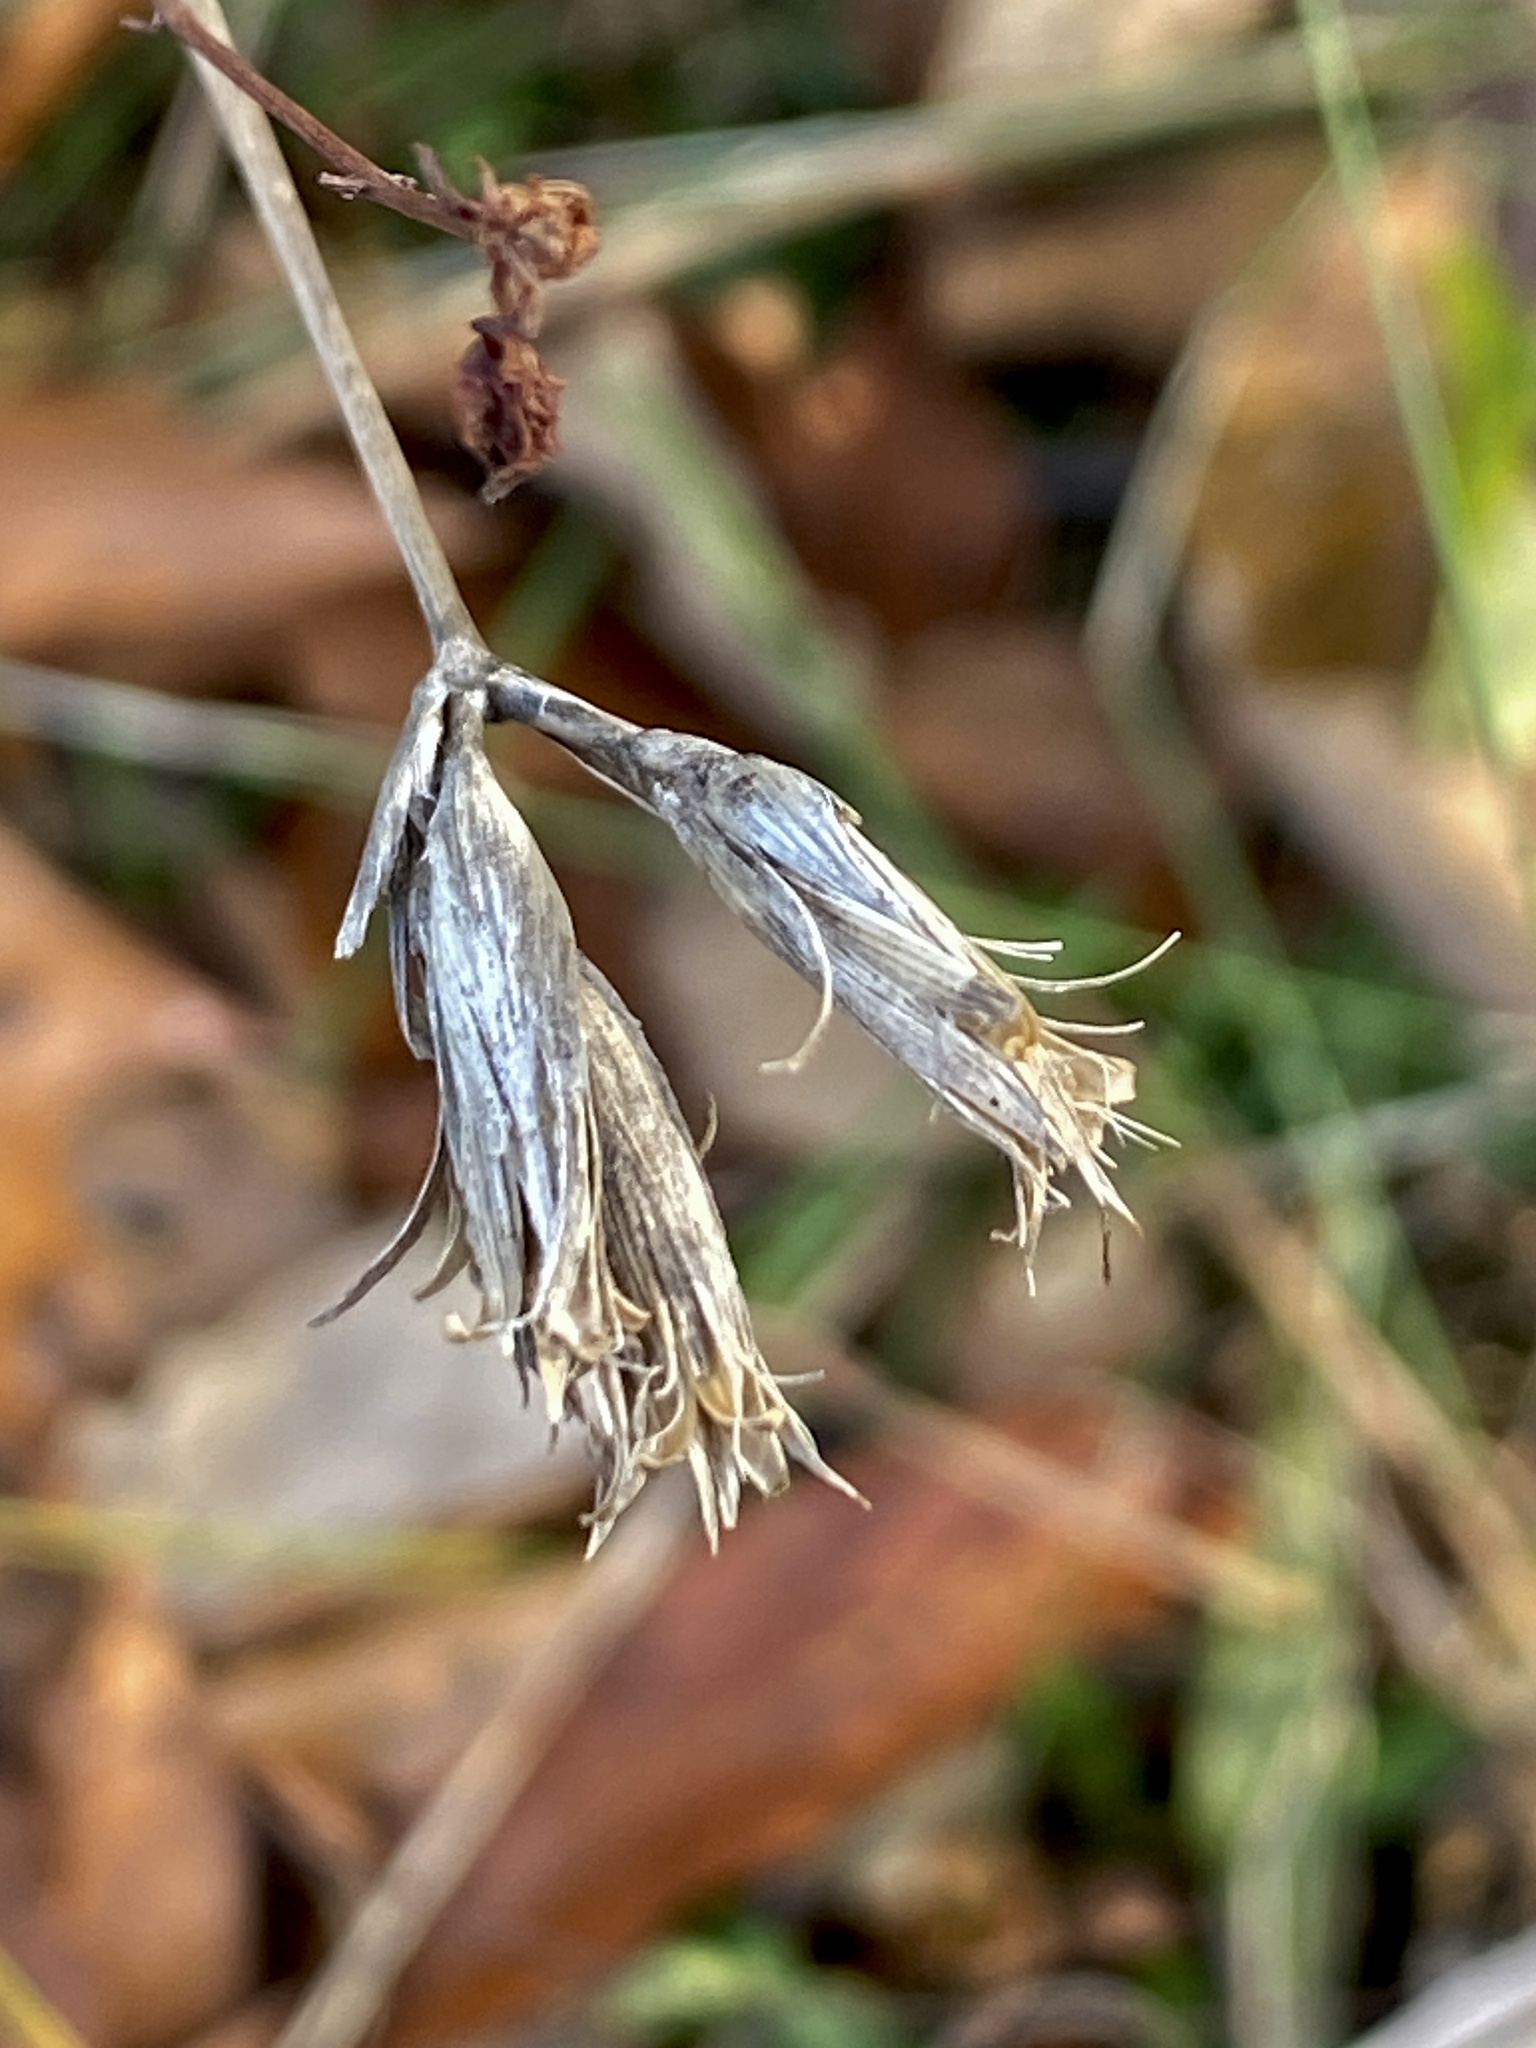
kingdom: Plantae
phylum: Tracheophyta
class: Magnoliopsida
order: Caryophyllales
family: Caryophyllaceae
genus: Dianthus
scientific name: Dianthus armeria
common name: Deptford pink
